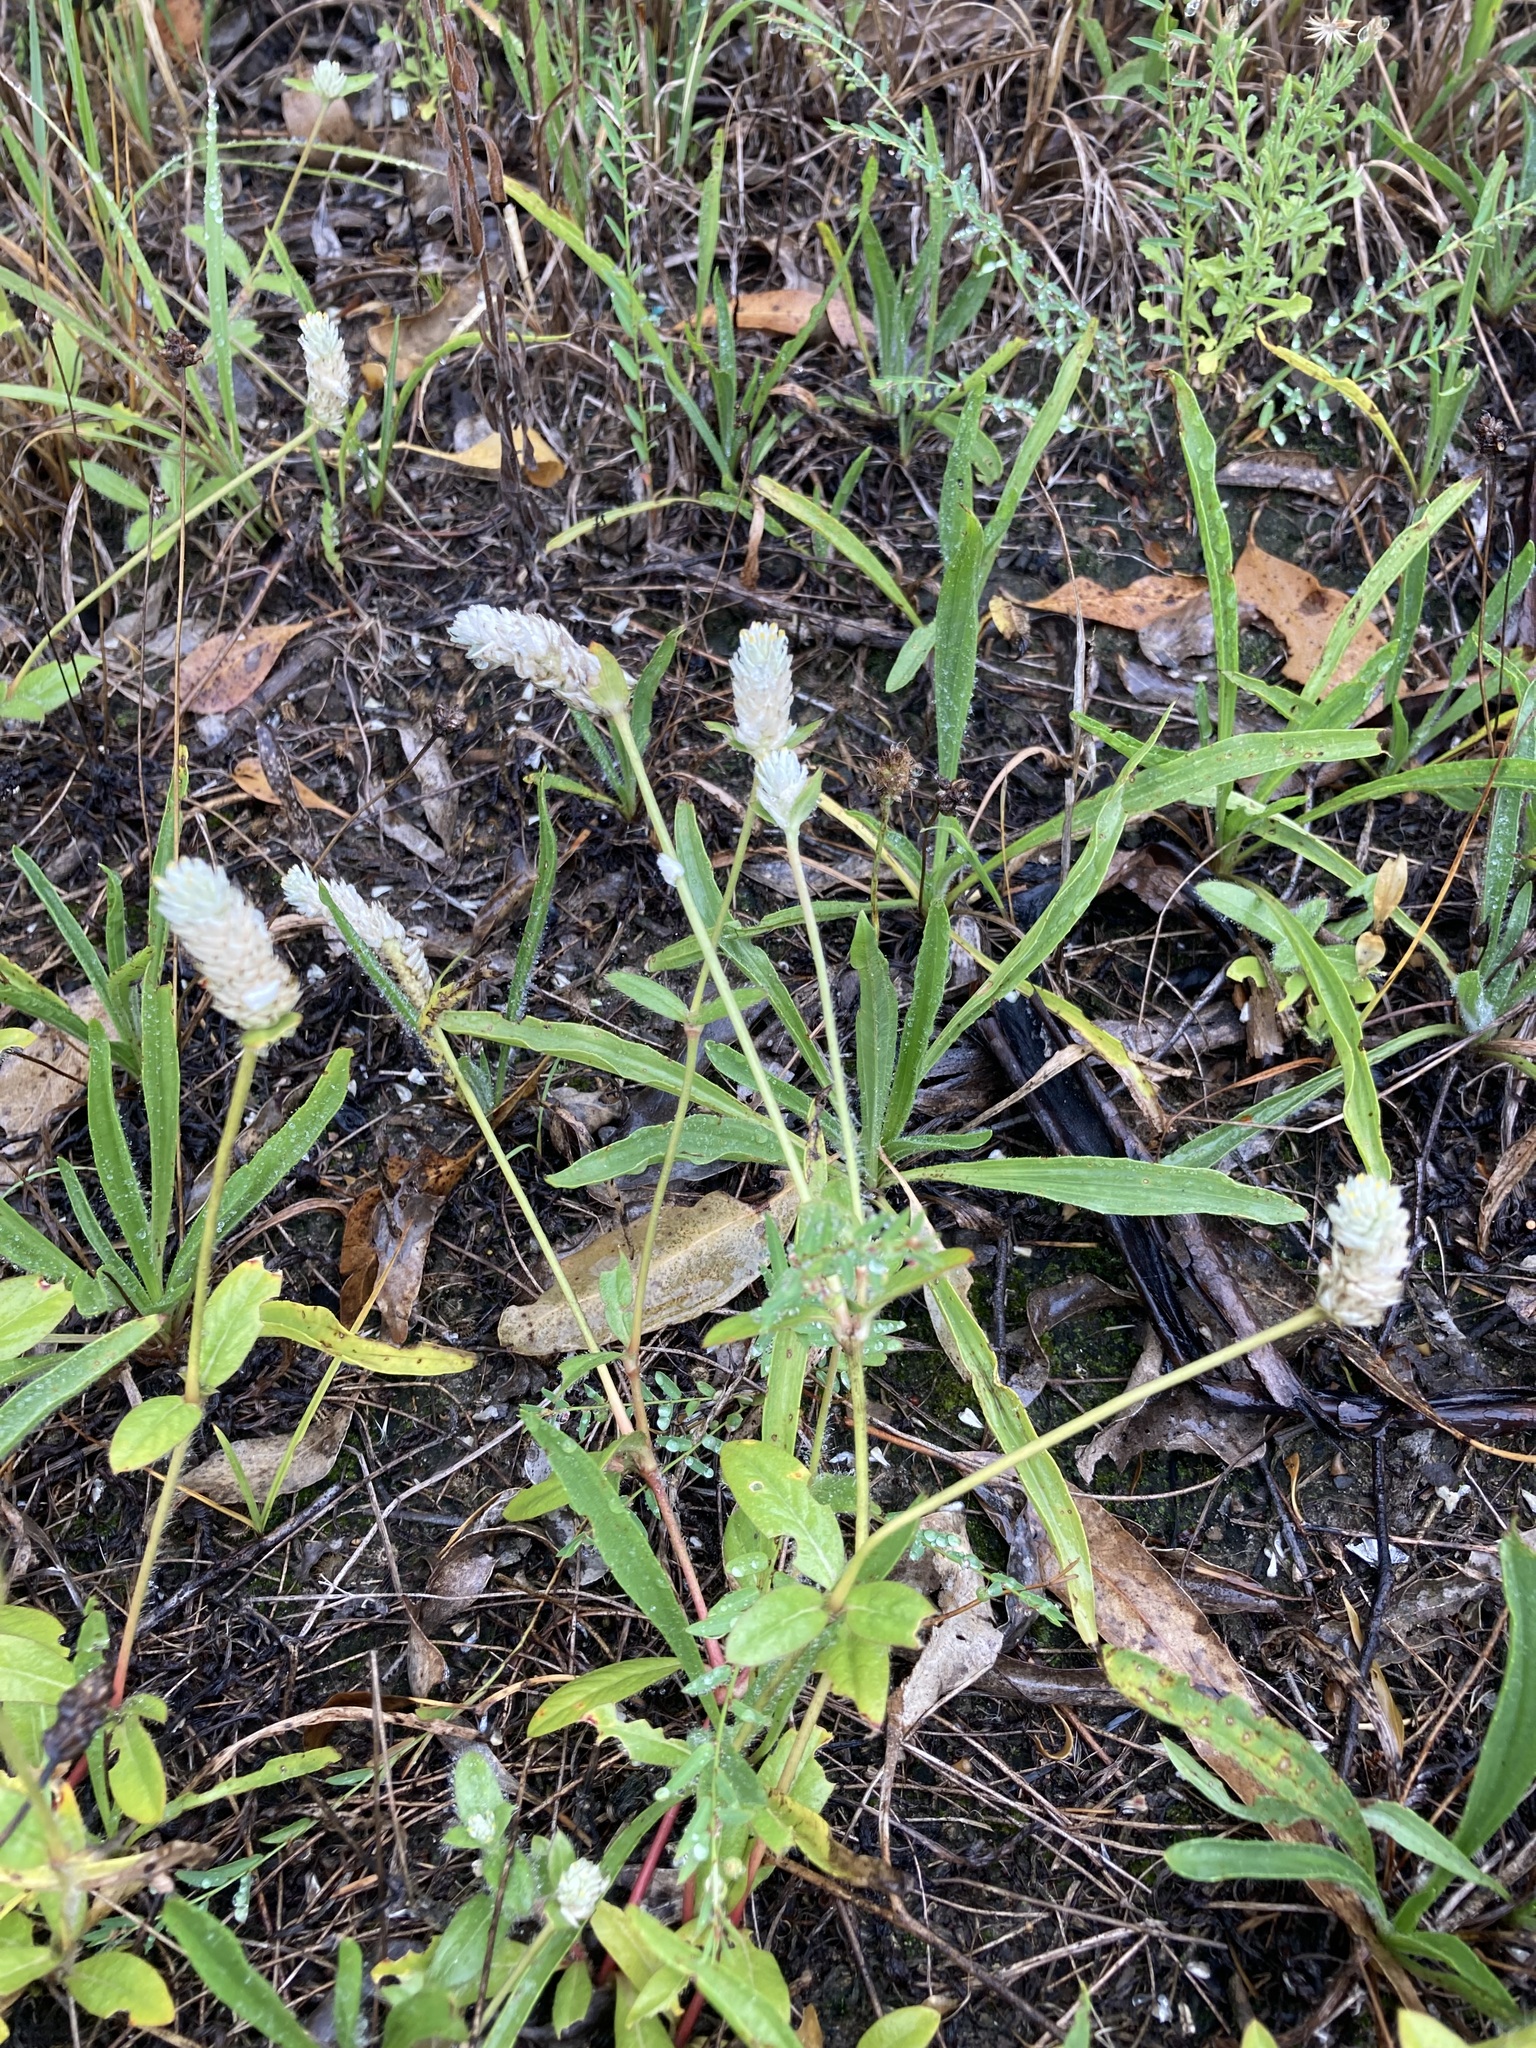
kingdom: Plantae
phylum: Tracheophyta
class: Magnoliopsida
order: Caryophyllales
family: Amaranthaceae
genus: Gomphrena
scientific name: Gomphrena celosioides
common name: Gomphrena-weed
